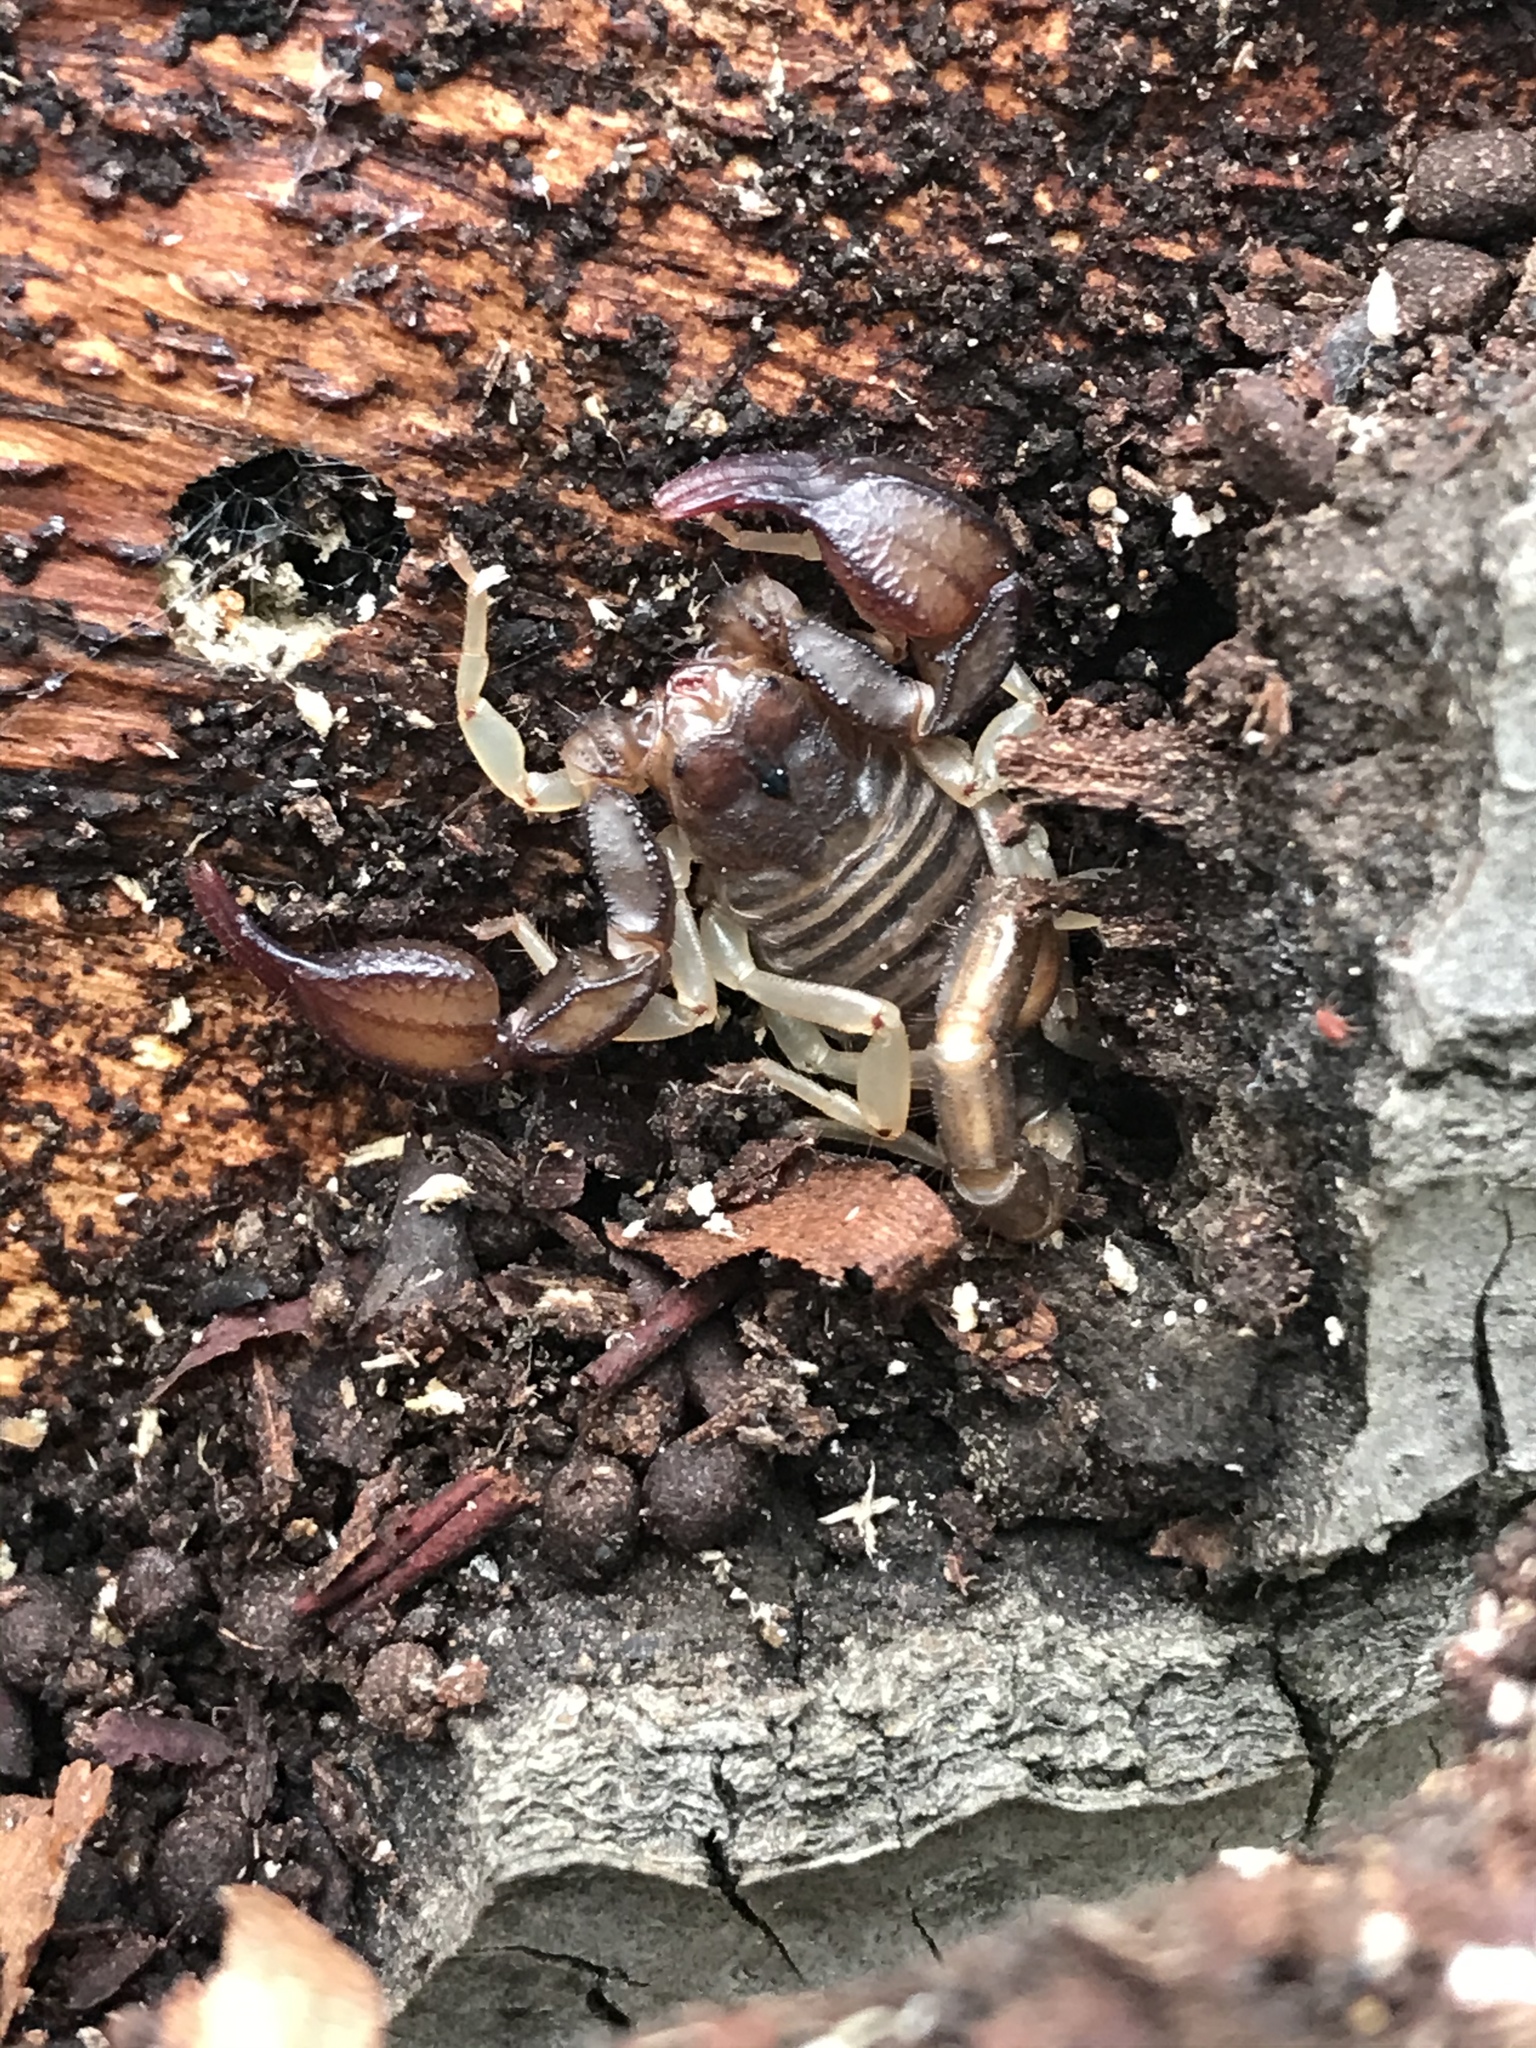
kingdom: Animalia
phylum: Arthropoda
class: Arachnida
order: Scorpiones
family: Chactidae
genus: Uroctonus
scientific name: Uroctonus mordax
